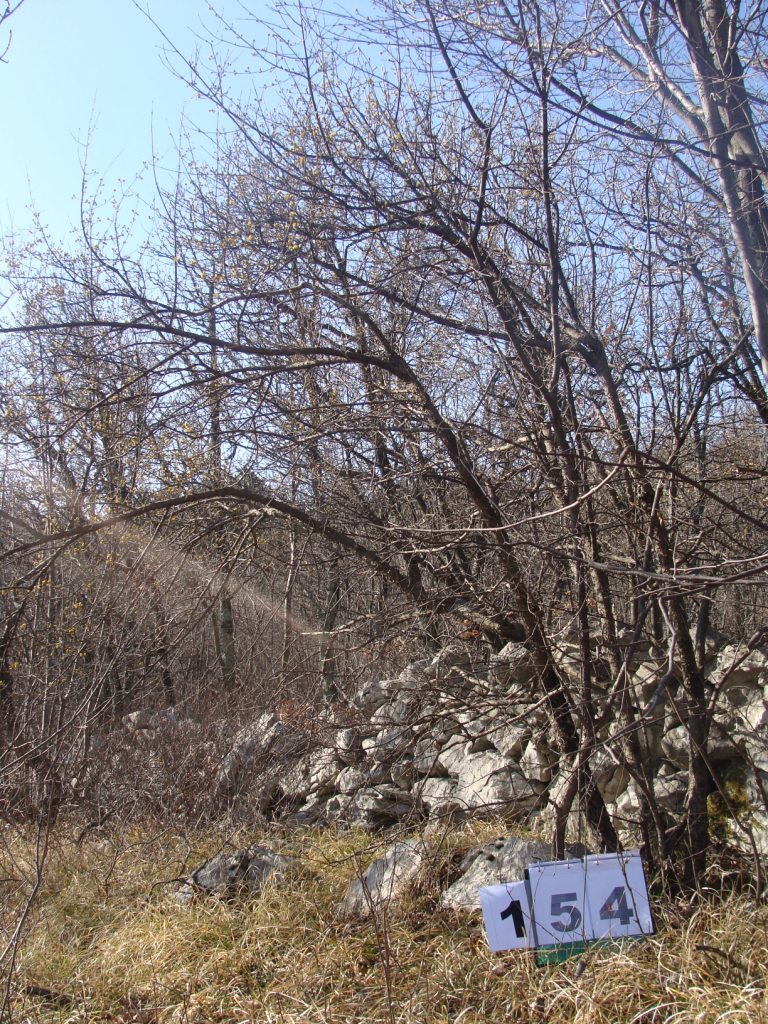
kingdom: Plantae
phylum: Tracheophyta
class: Magnoliopsida
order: Cornales
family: Cornaceae
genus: Cornus
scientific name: Cornus mas
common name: Cornelian-cherry
